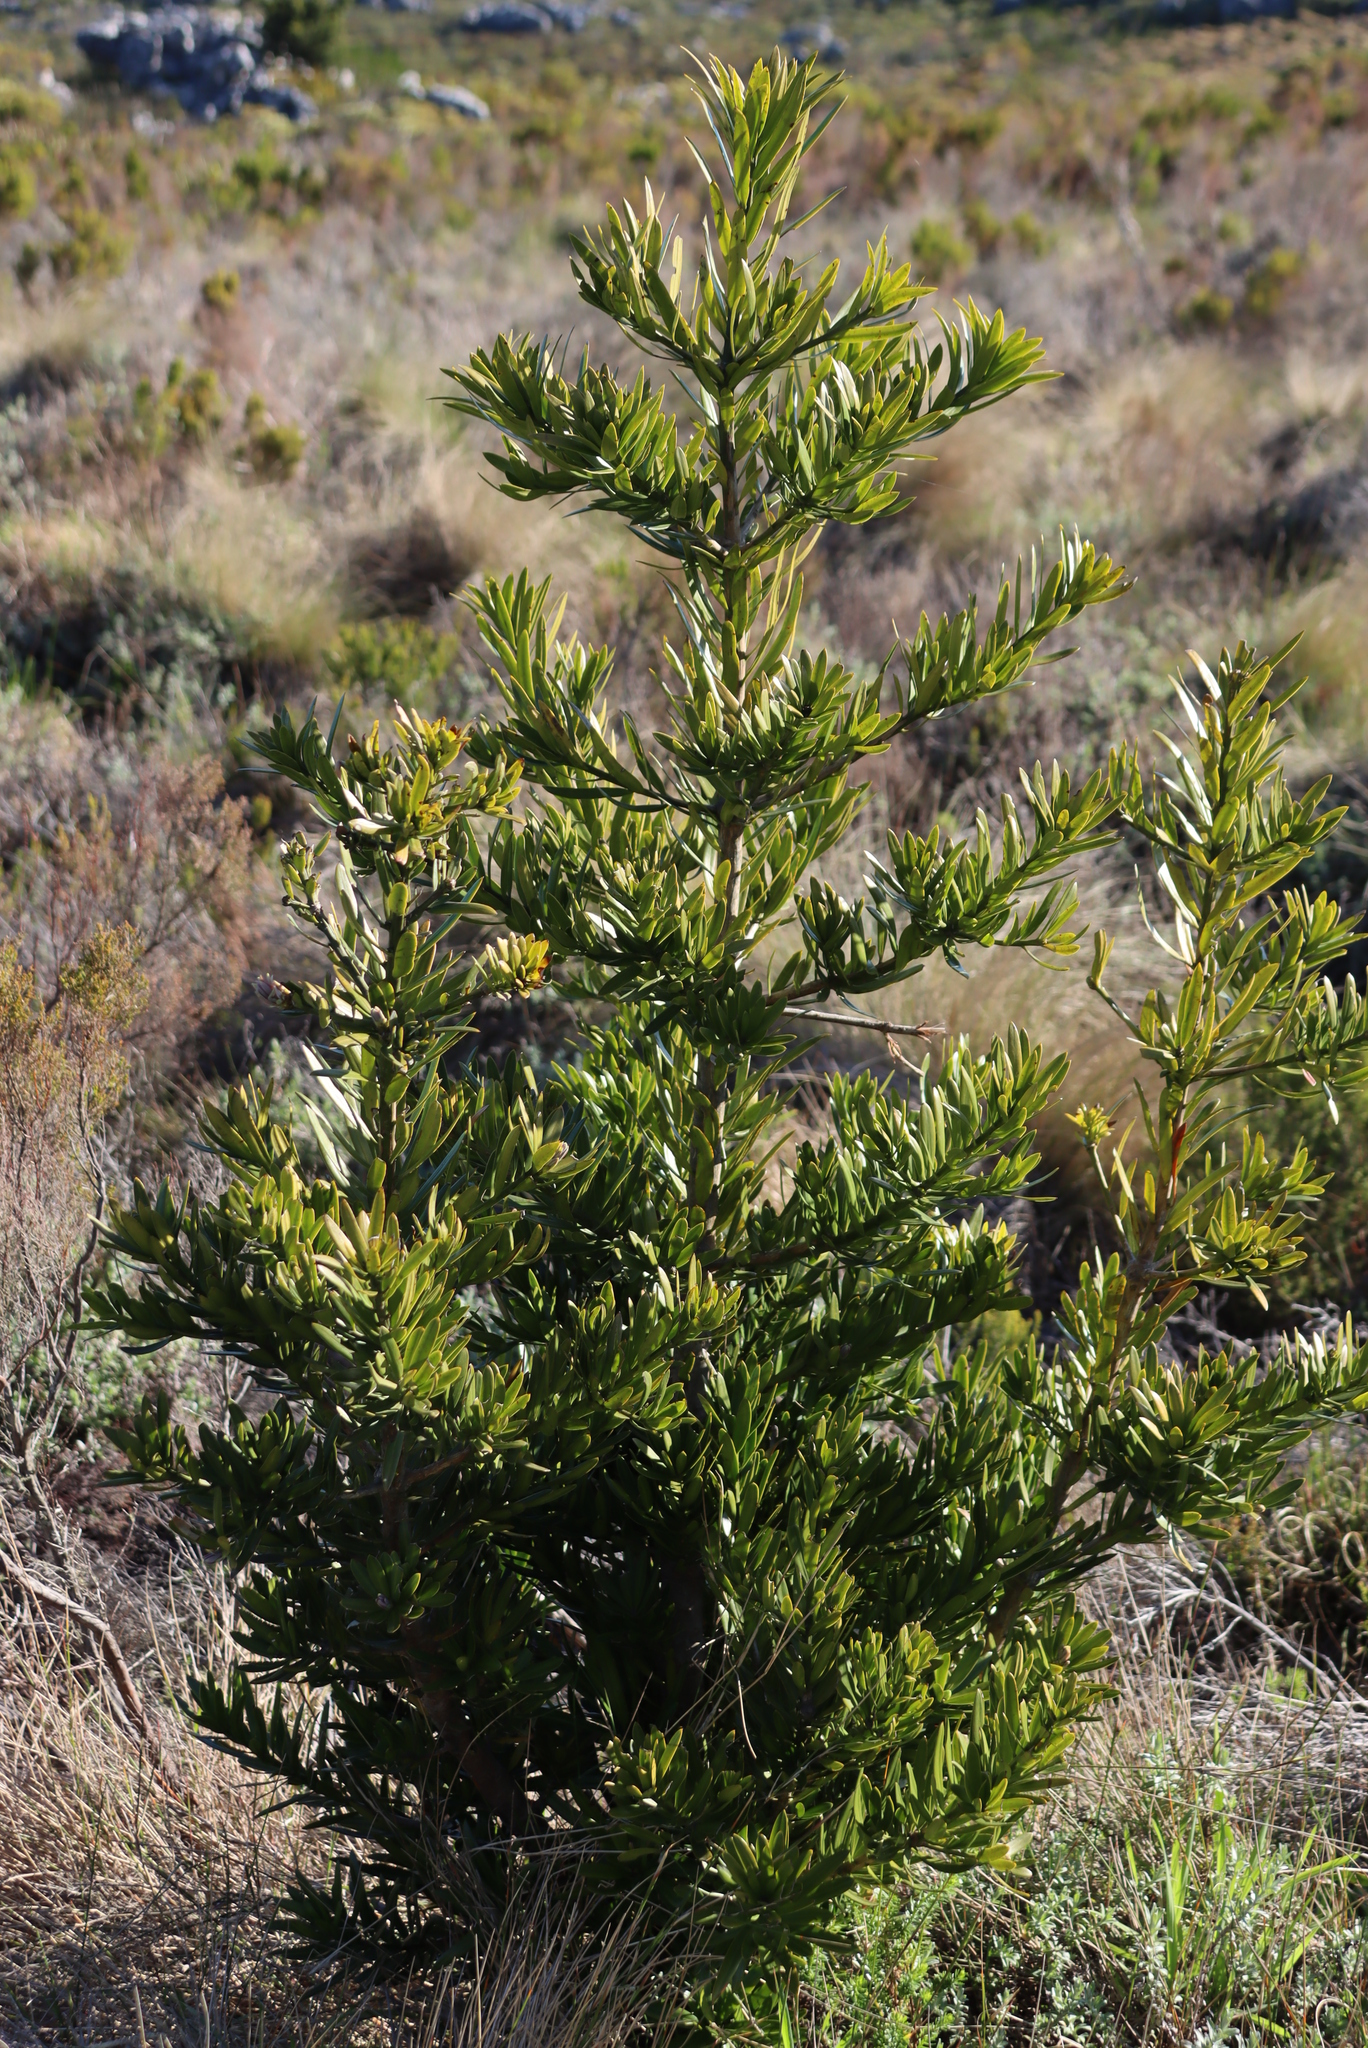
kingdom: Plantae
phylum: Tracheophyta
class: Pinopsida
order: Pinales
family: Podocarpaceae
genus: Podocarpus
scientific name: Podocarpus latifolius
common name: True yellowwood
